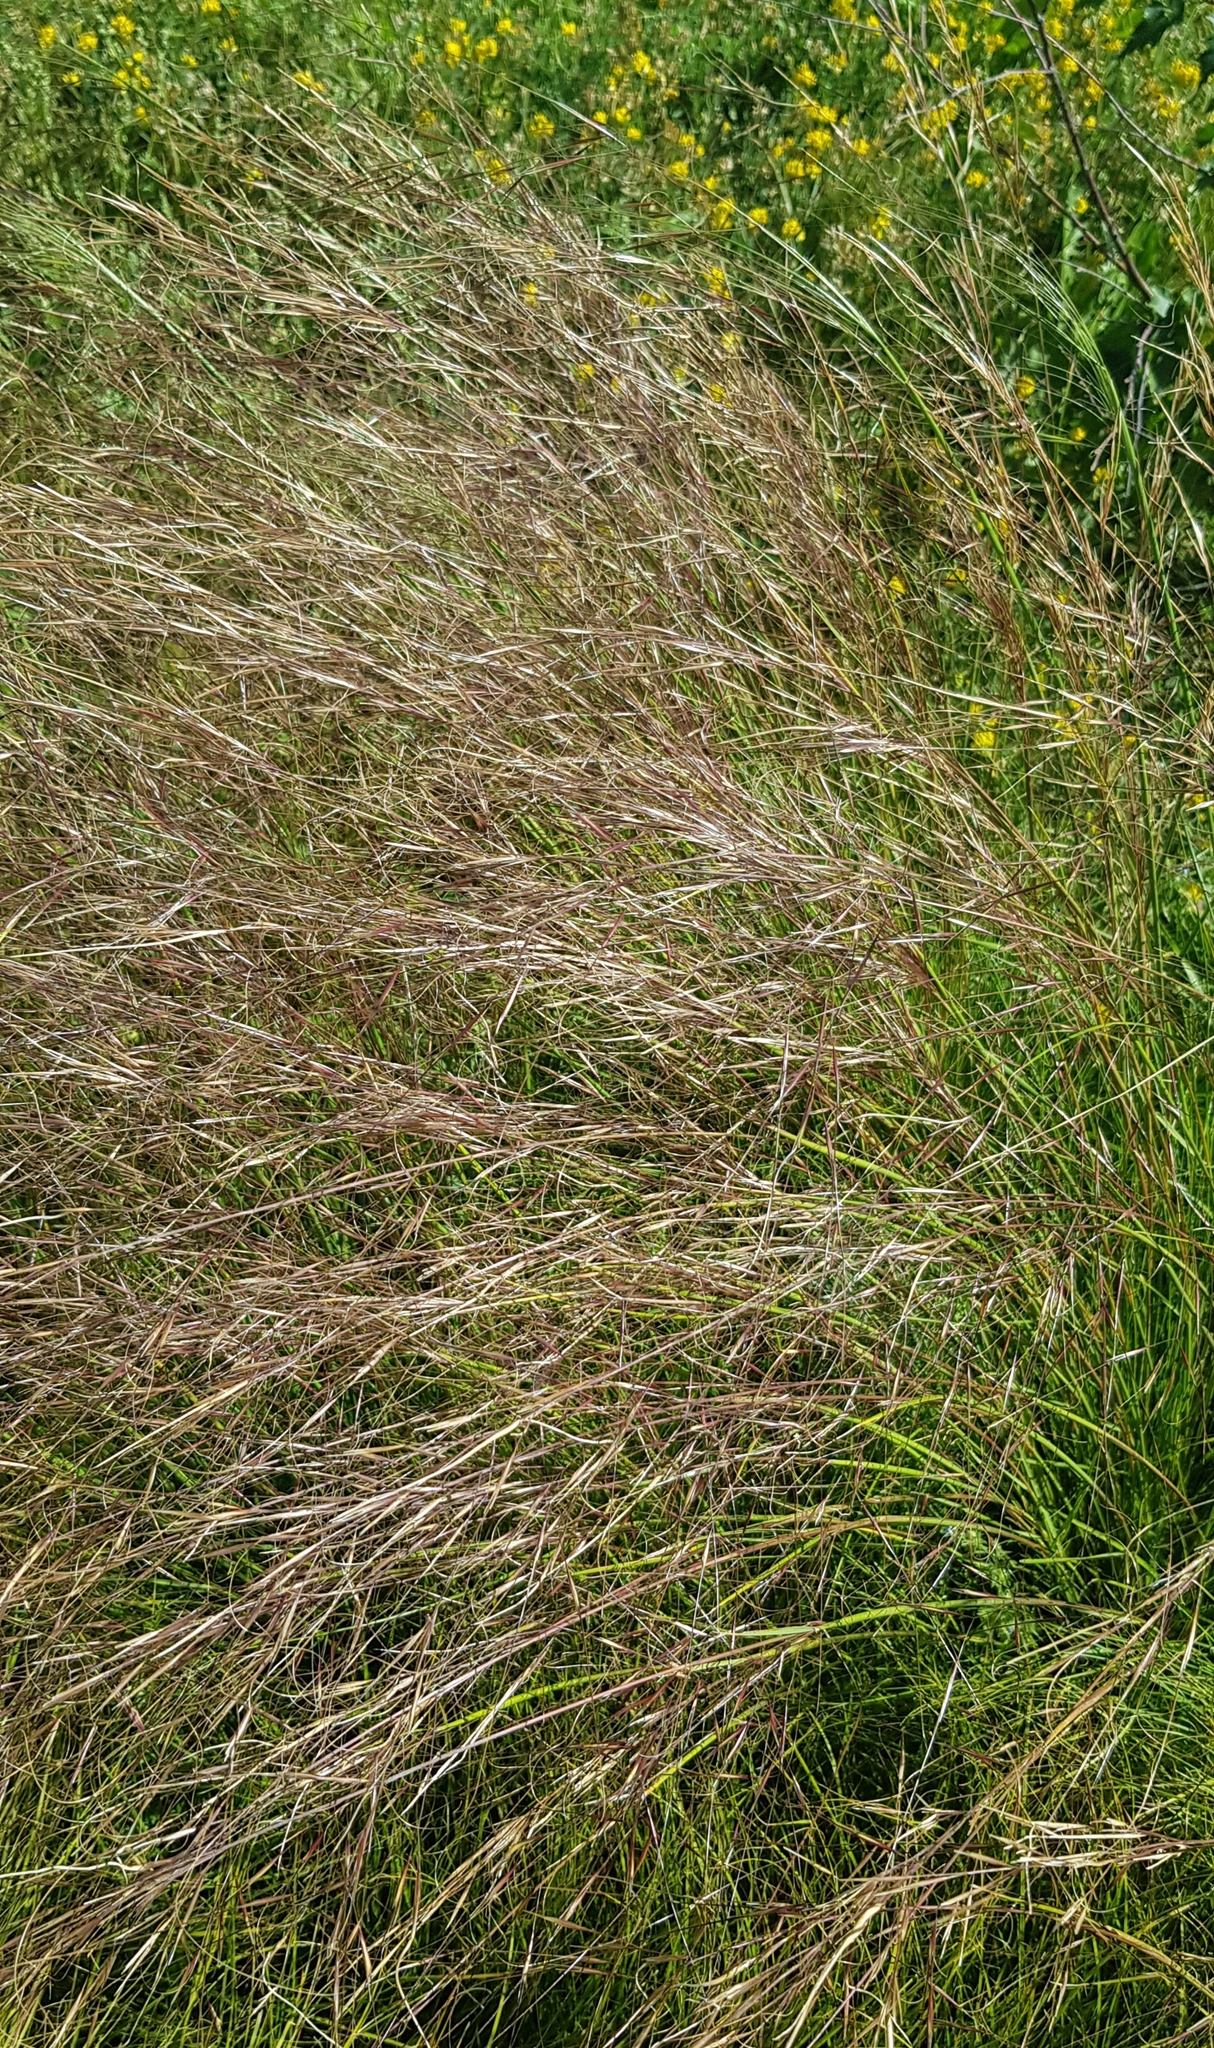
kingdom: Plantae
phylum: Tracheophyta
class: Liliopsida
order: Poales
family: Poaceae
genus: Stipa
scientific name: Stipa krylovii
